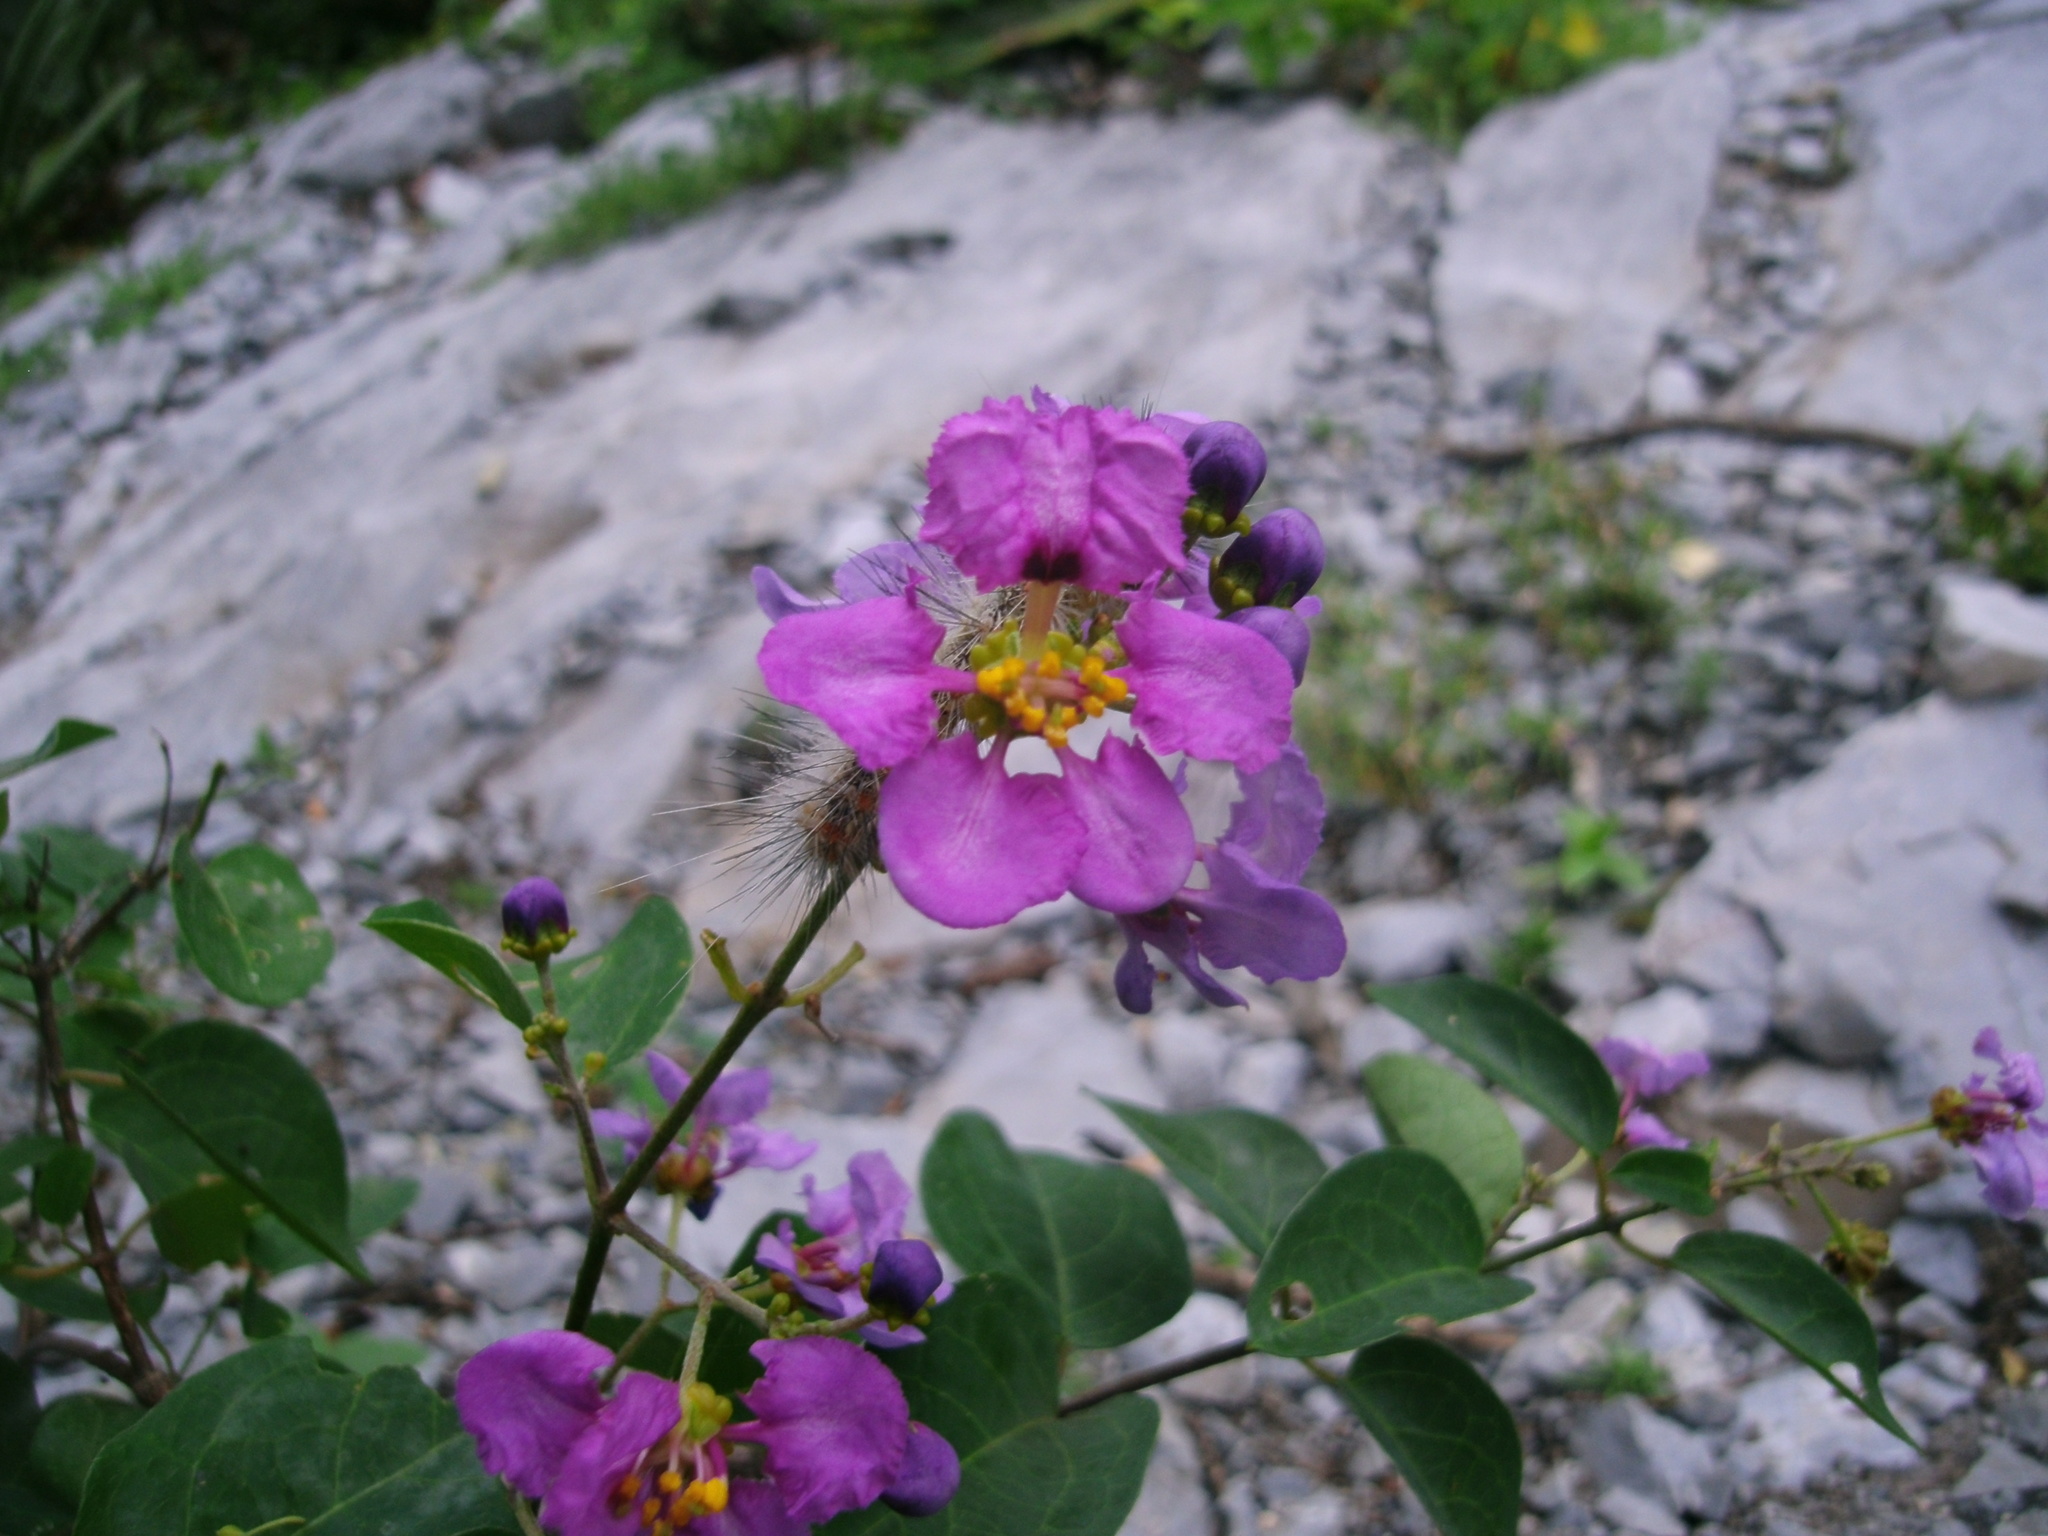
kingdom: Plantae
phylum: Tracheophyta
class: Magnoliopsida
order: Malpighiales
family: Malpighiaceae
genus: Mascagnia
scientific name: Mascagnia lilacina
